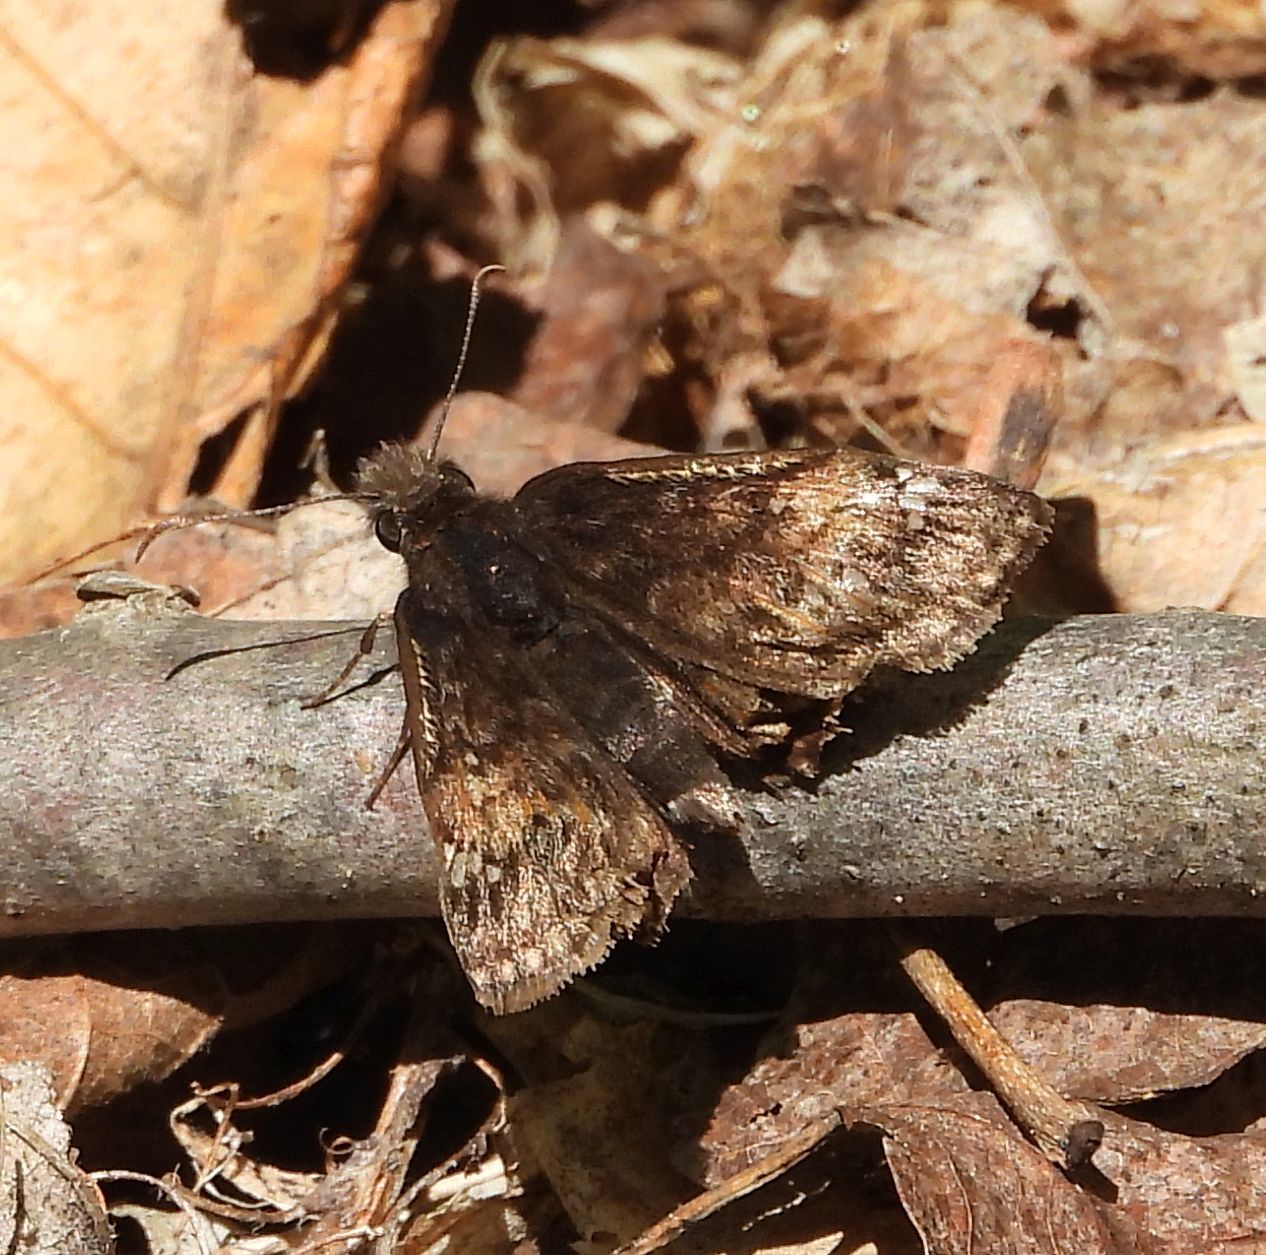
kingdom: Animalia
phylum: Arthropoda
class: Insecta
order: Lepidoptera
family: Hesperiidae
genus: Erynnis
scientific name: Erynnis juvenalis
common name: Juvenal's duskywing
